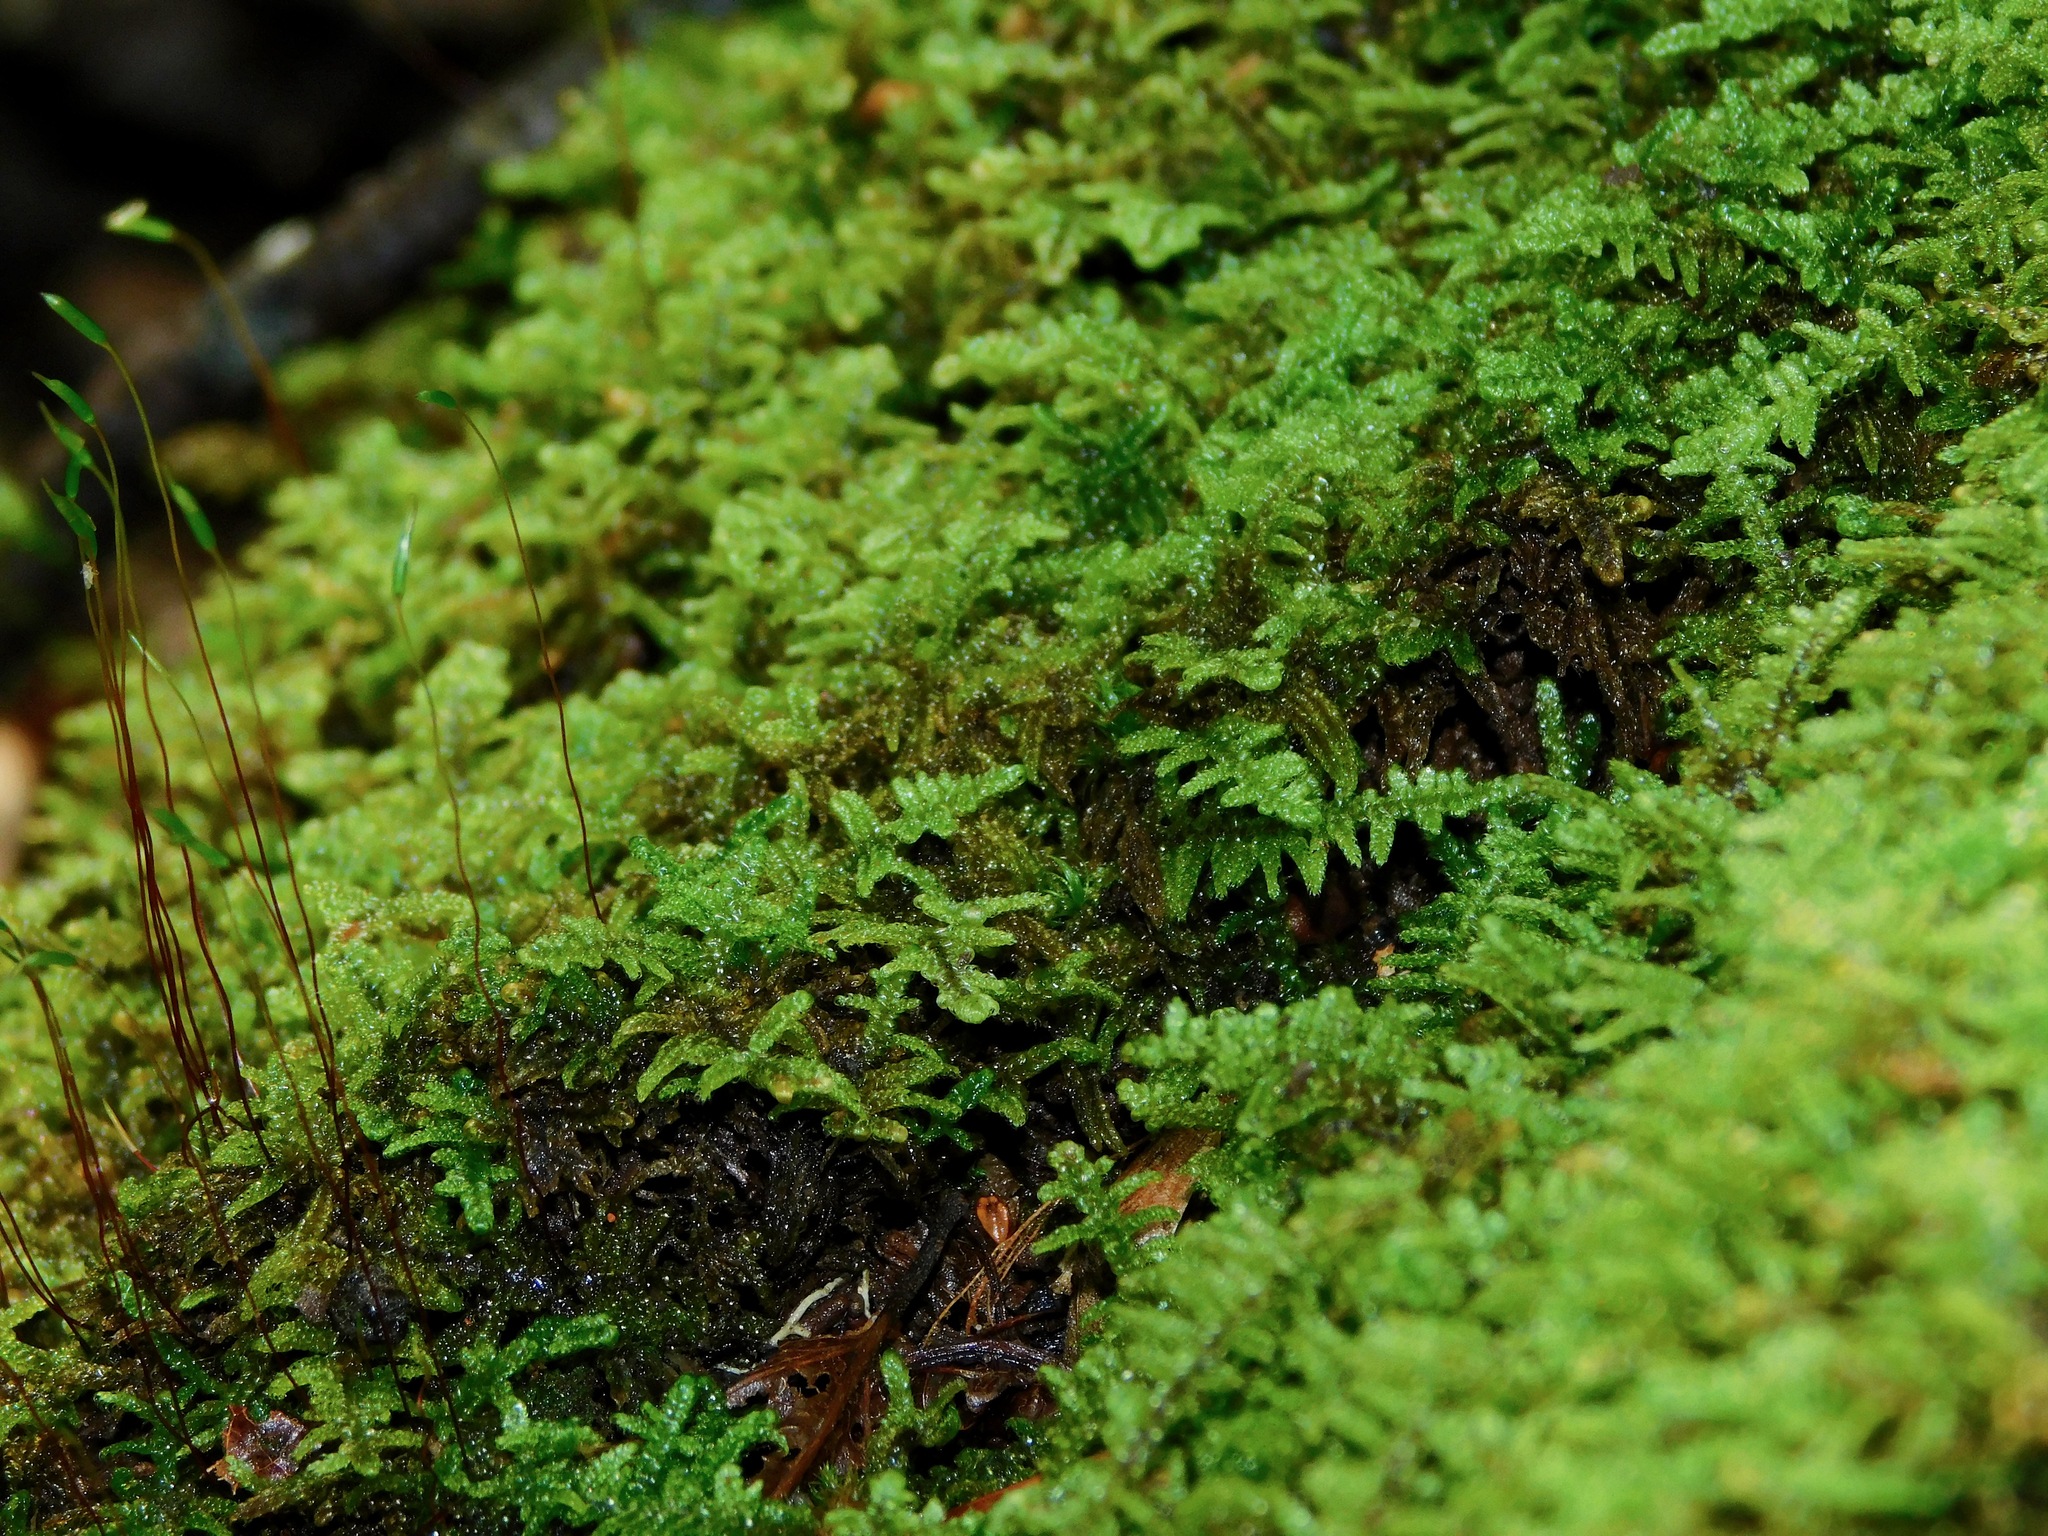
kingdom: Plantae
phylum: Bryophyta
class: Bryopsida
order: Hypnales
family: Callicladiaceae
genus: Callicladium
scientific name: Callicladium imponens
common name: Brocade moss
